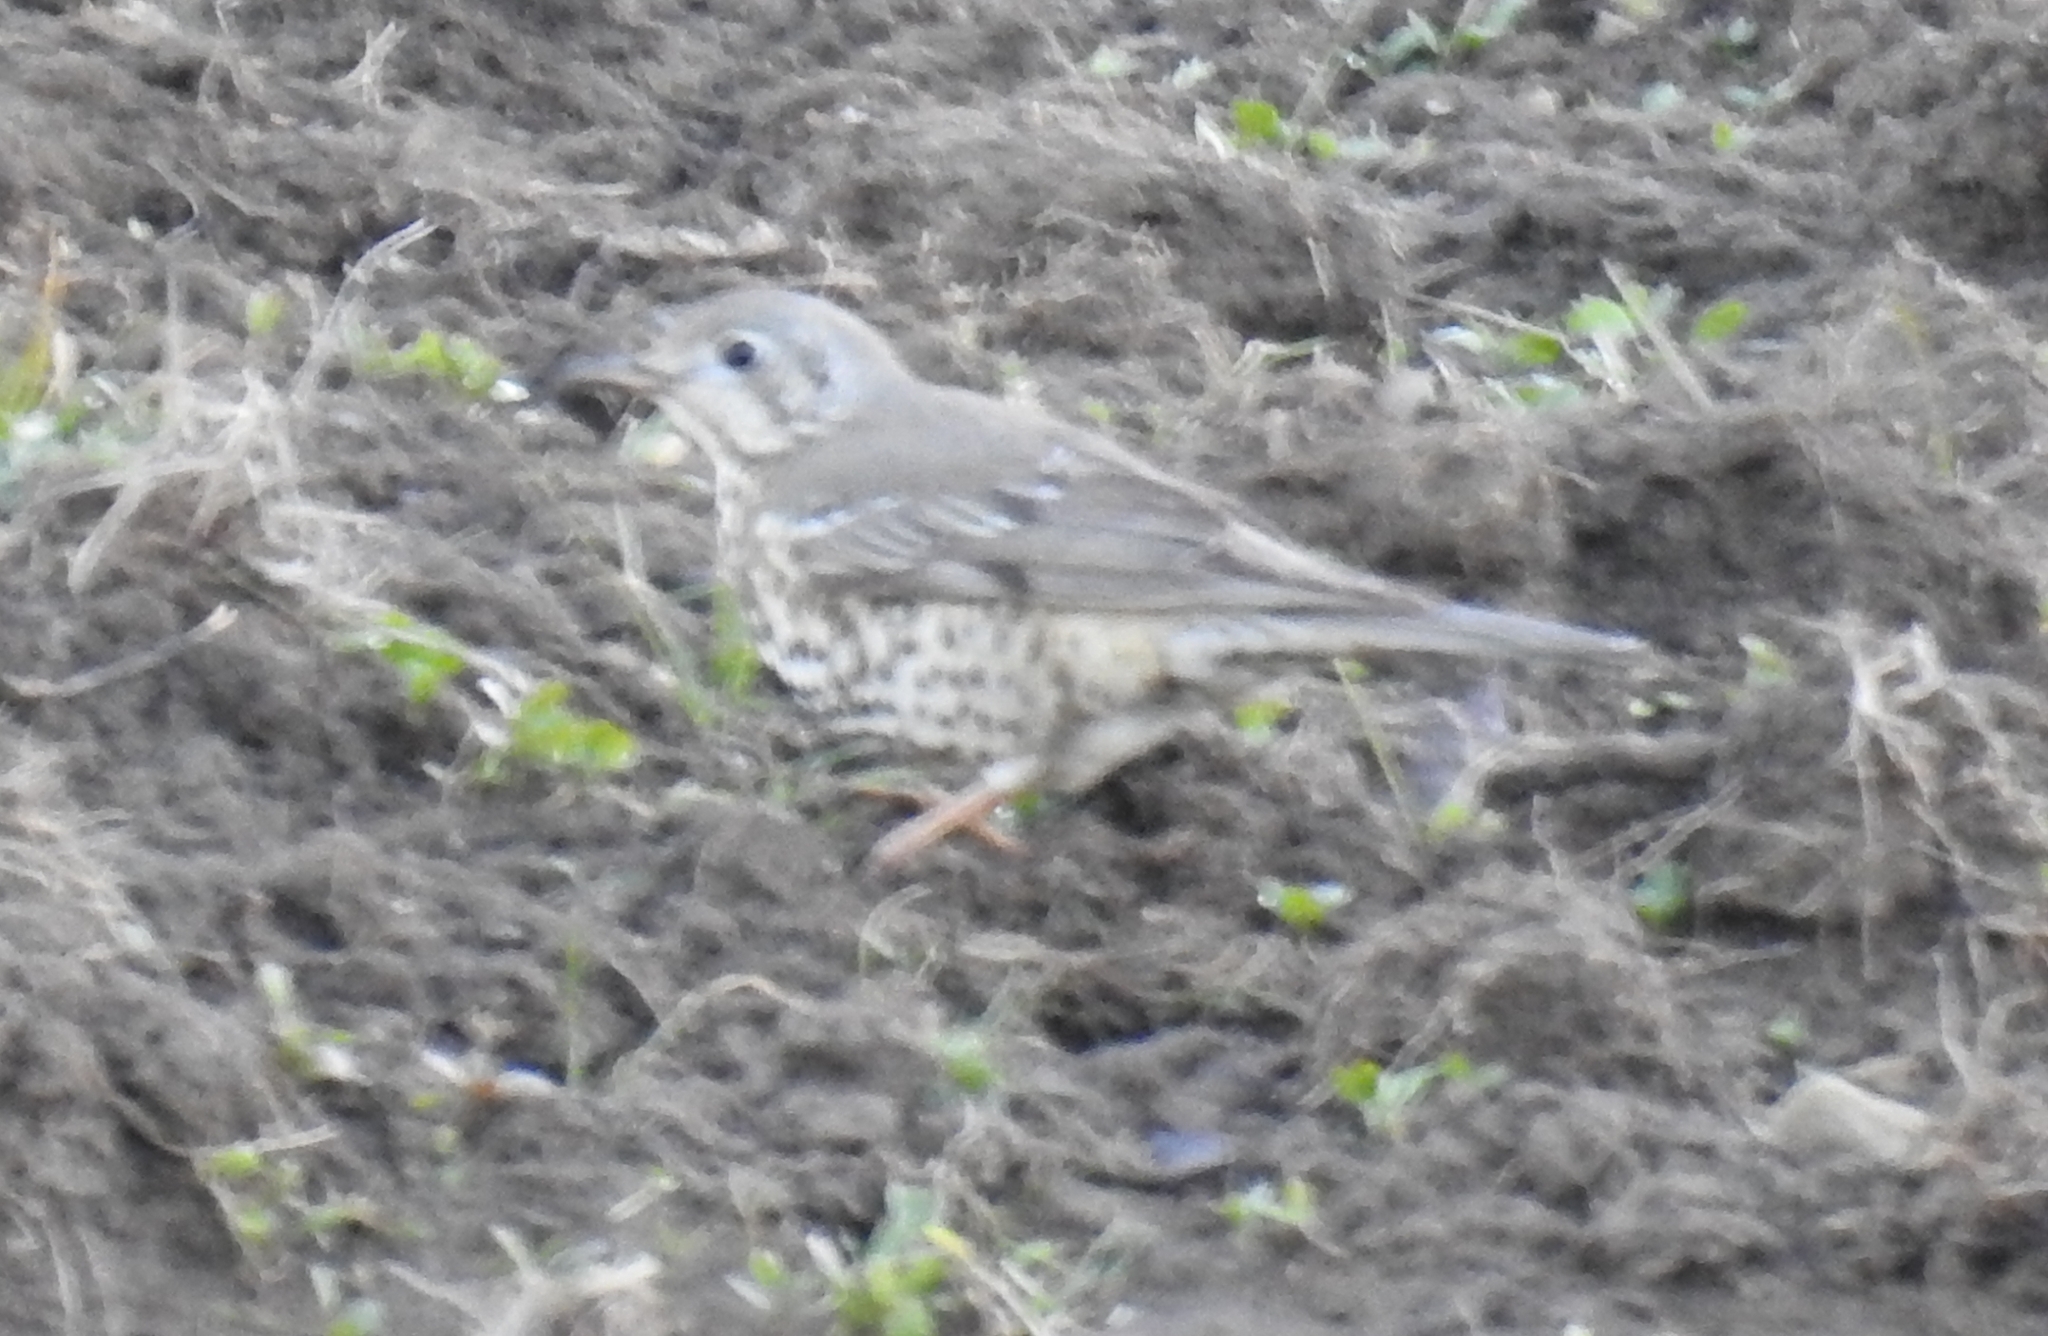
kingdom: Animalia
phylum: Chordata
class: Aves
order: Passeriformes
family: Turdidae
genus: Turdus
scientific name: Turdus viscivorus
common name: Mistle thrush
